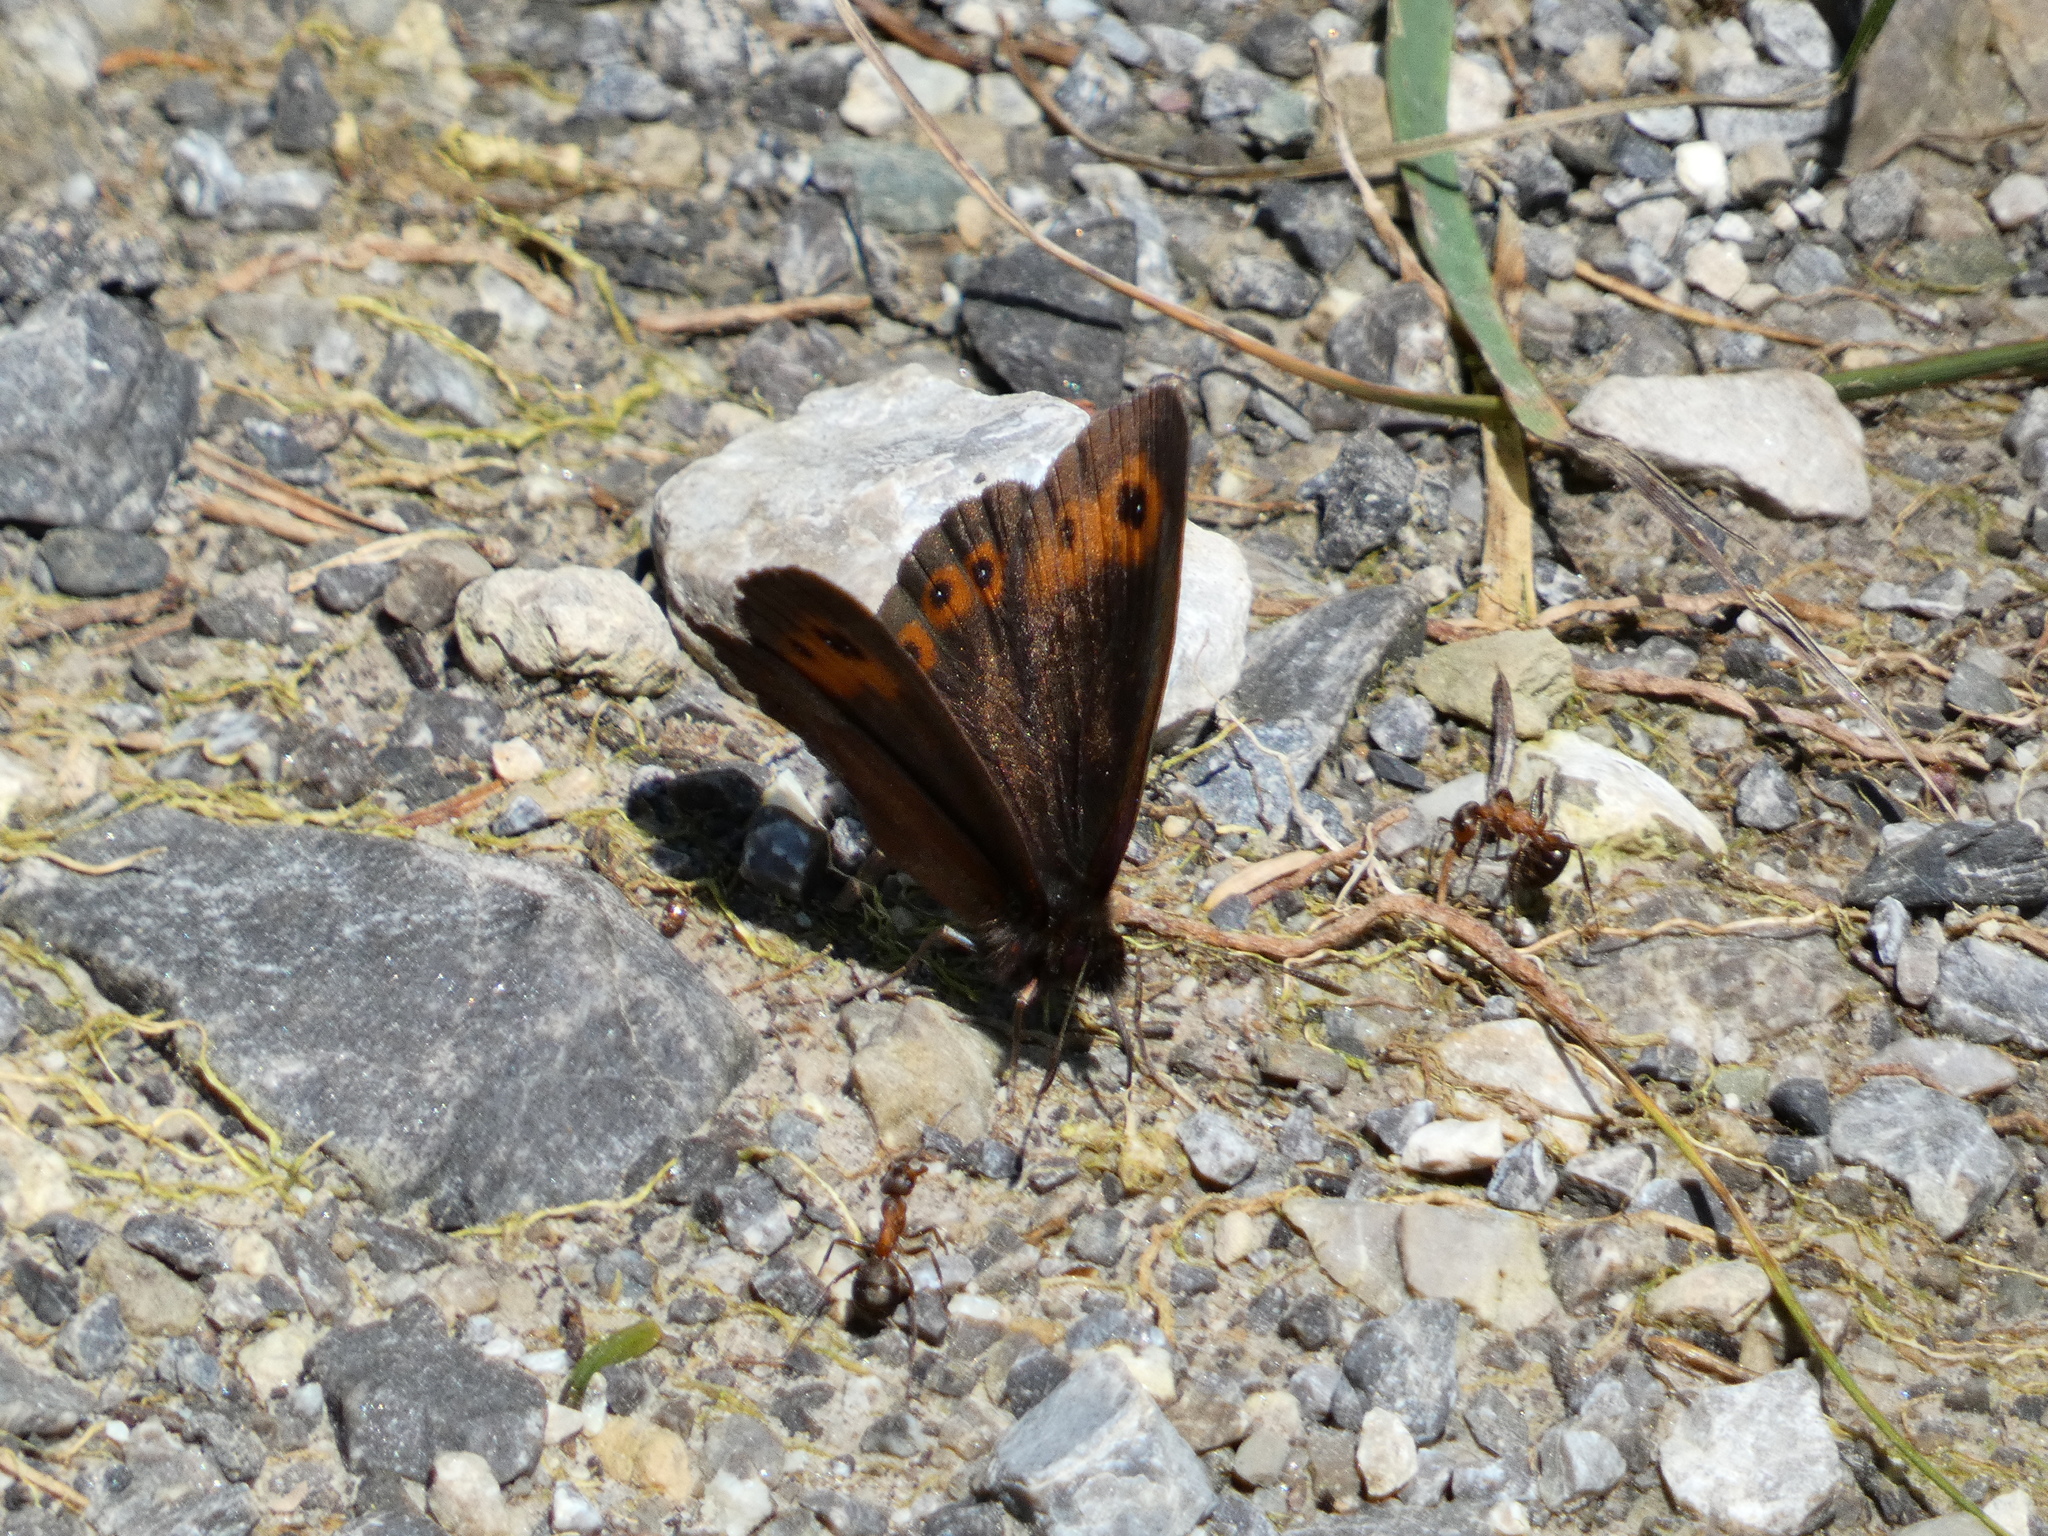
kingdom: Animalia
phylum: Arthropoda
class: Insecta
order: Lepidoptera
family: Nymphalidae
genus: Erebia
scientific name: Erebia aethiops
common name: Scotch argus
